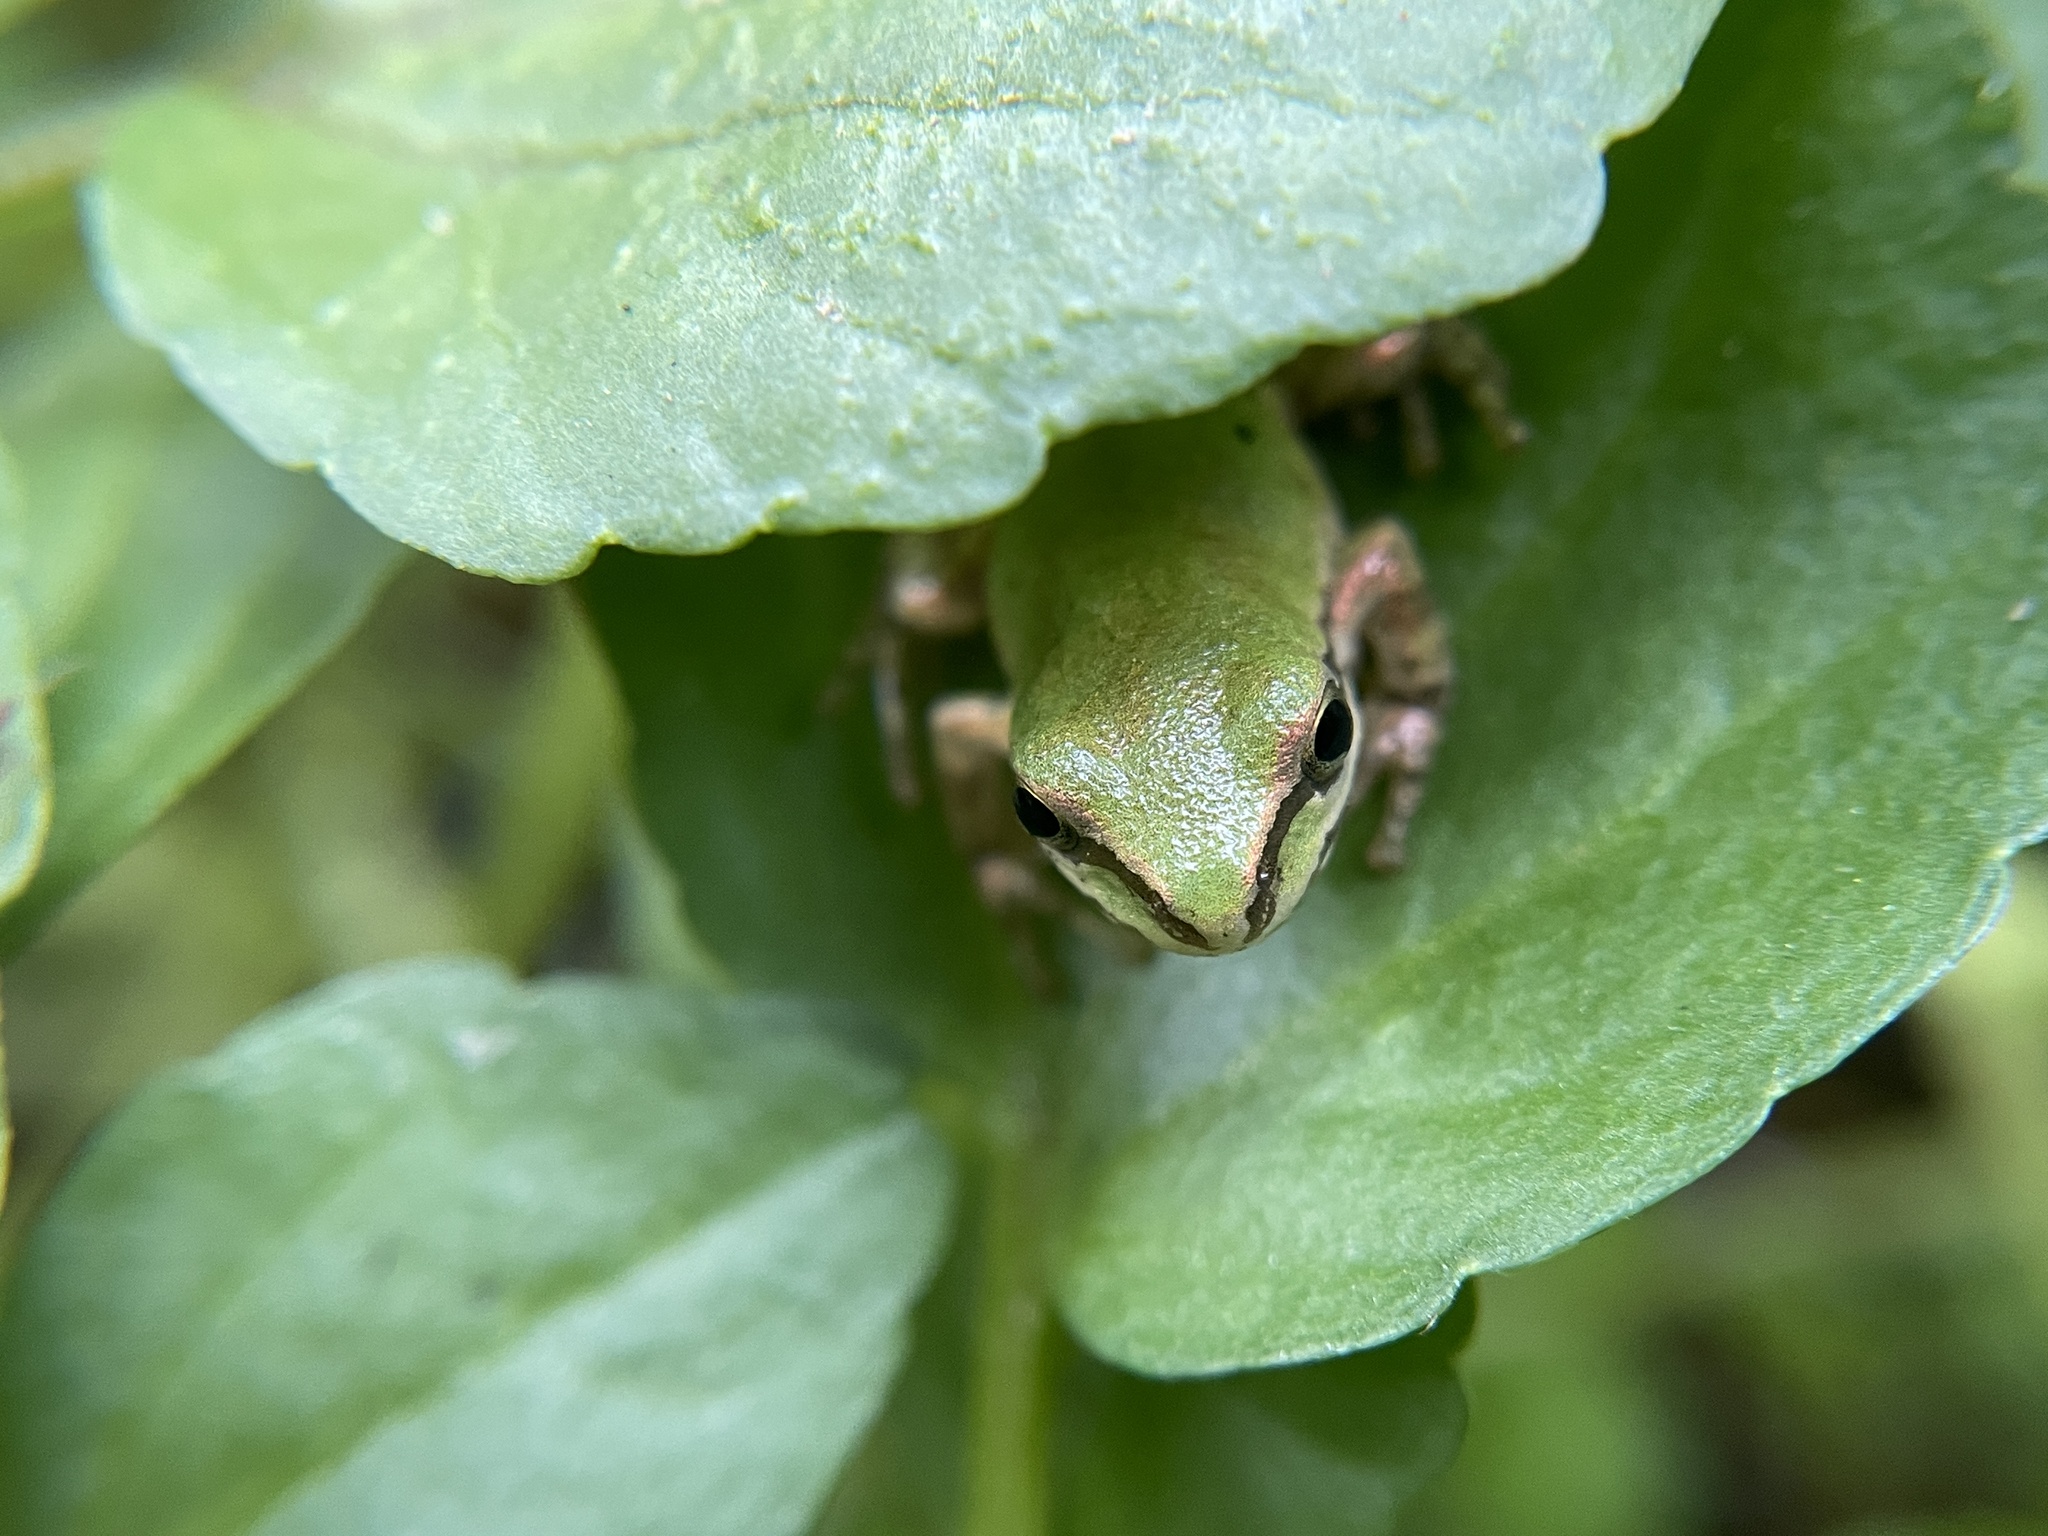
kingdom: Animalia
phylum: Chordata
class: Amphibia
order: Anura
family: Hylidae
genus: Pseudacris
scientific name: Pseudacris regilla
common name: Pacific chorus frog
